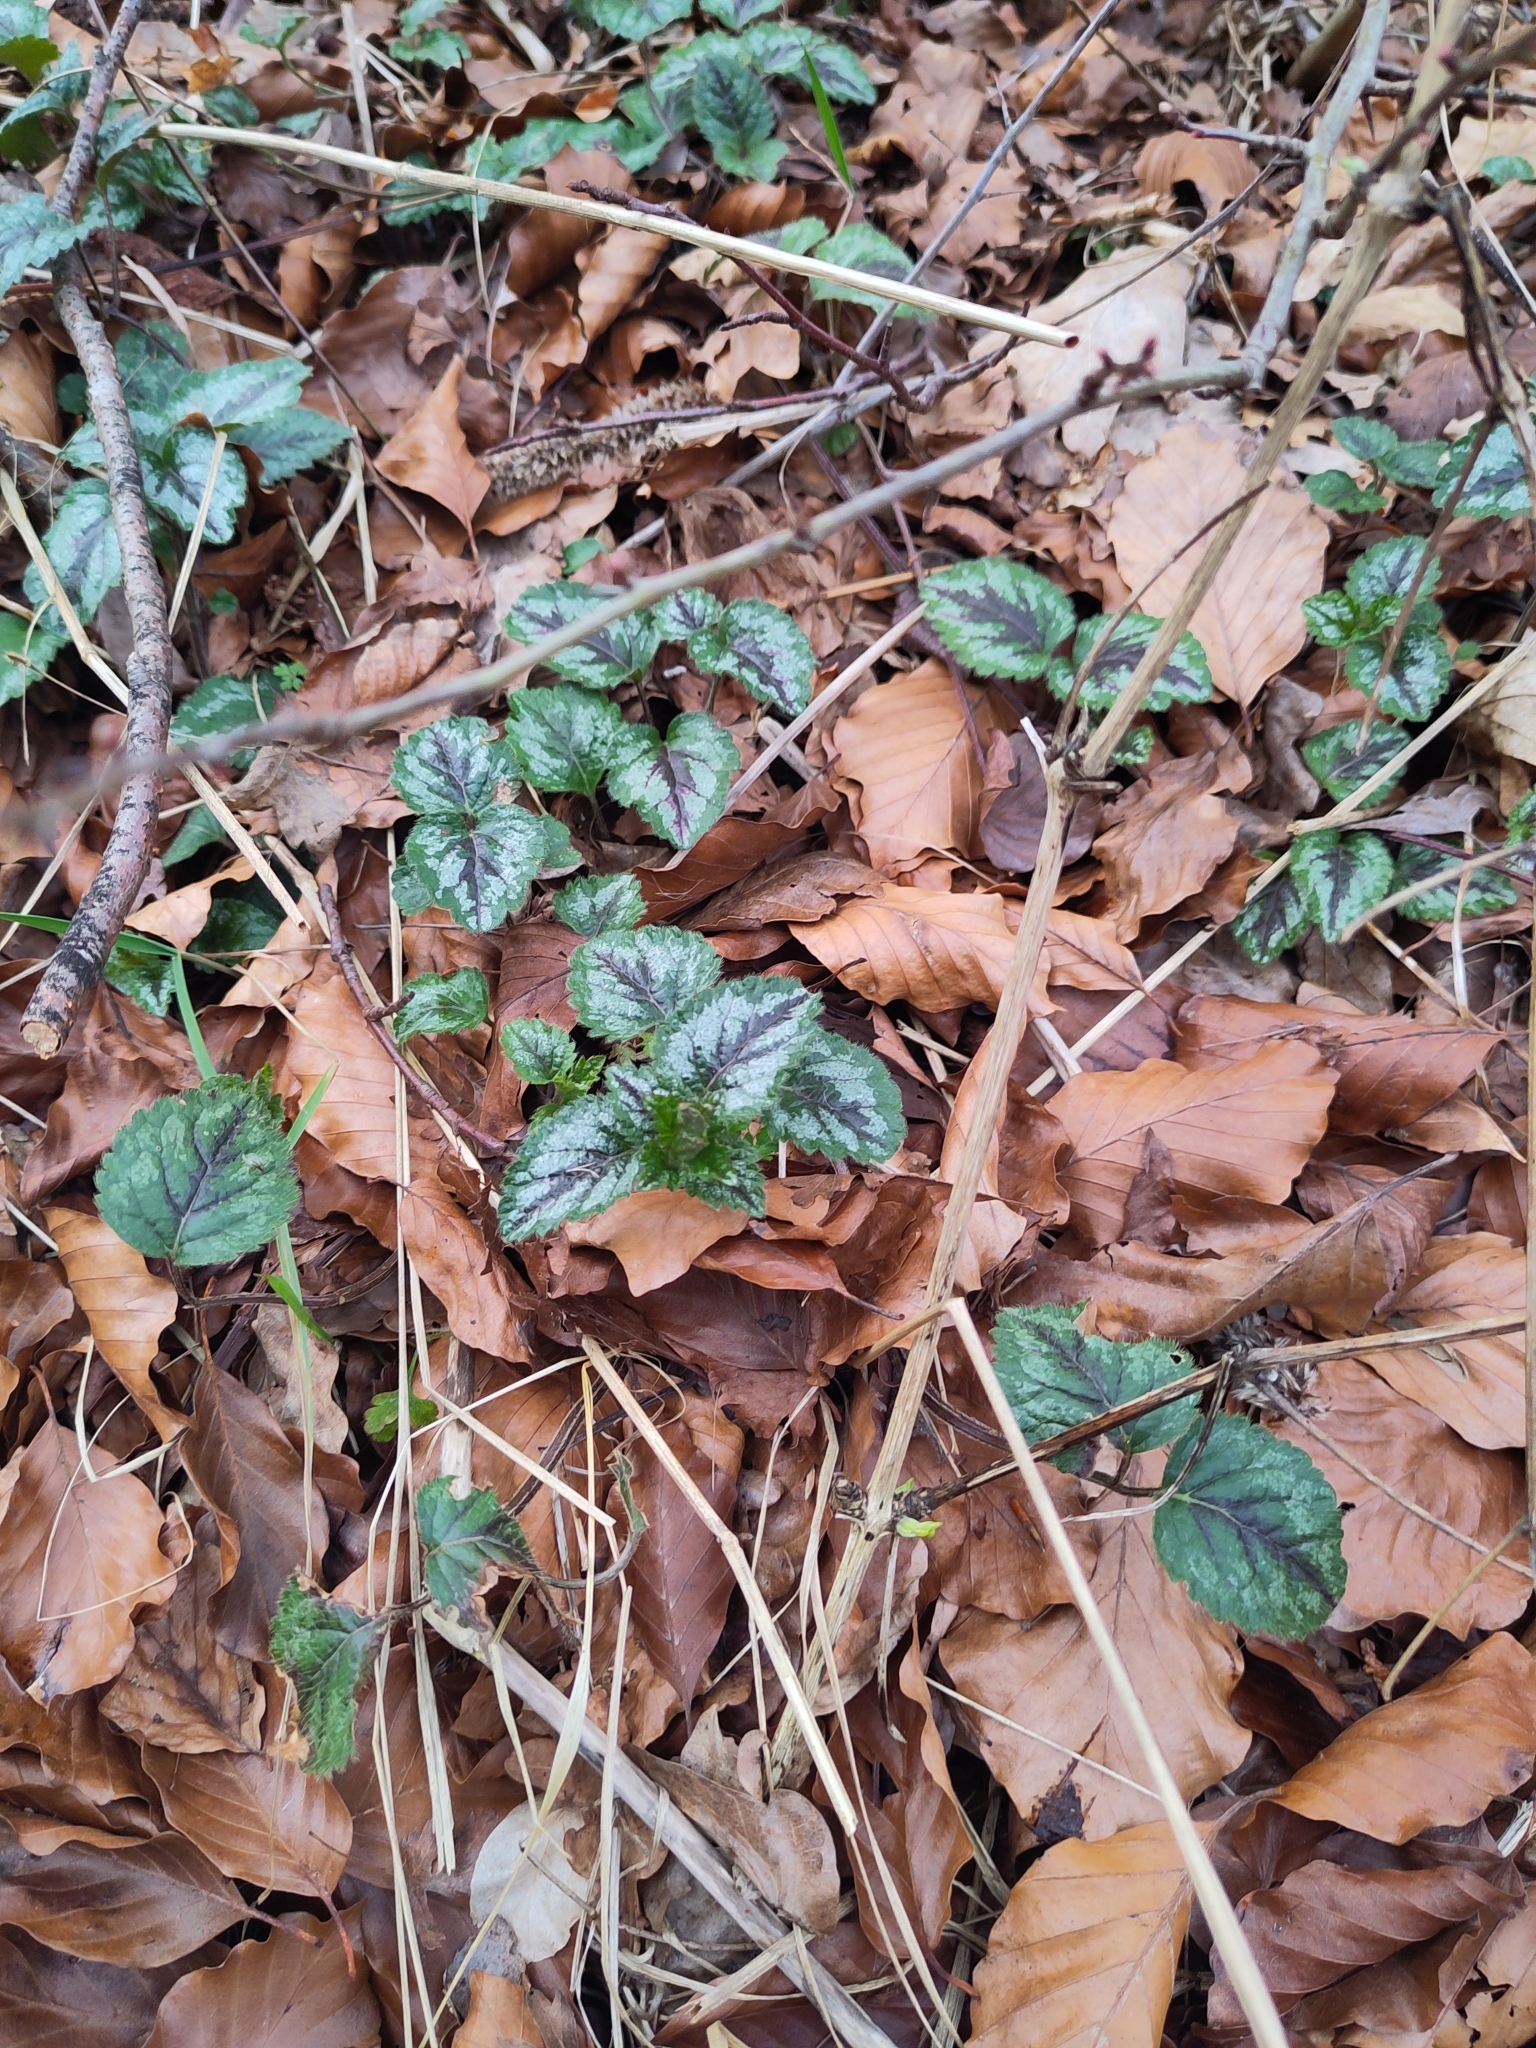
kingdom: Plantae
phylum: Tracheophyta
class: Magnoliopsida
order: Lamiales
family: Lamiaceae
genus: Lamium
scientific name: Lamium galeobdolon
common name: Yellow archangel
